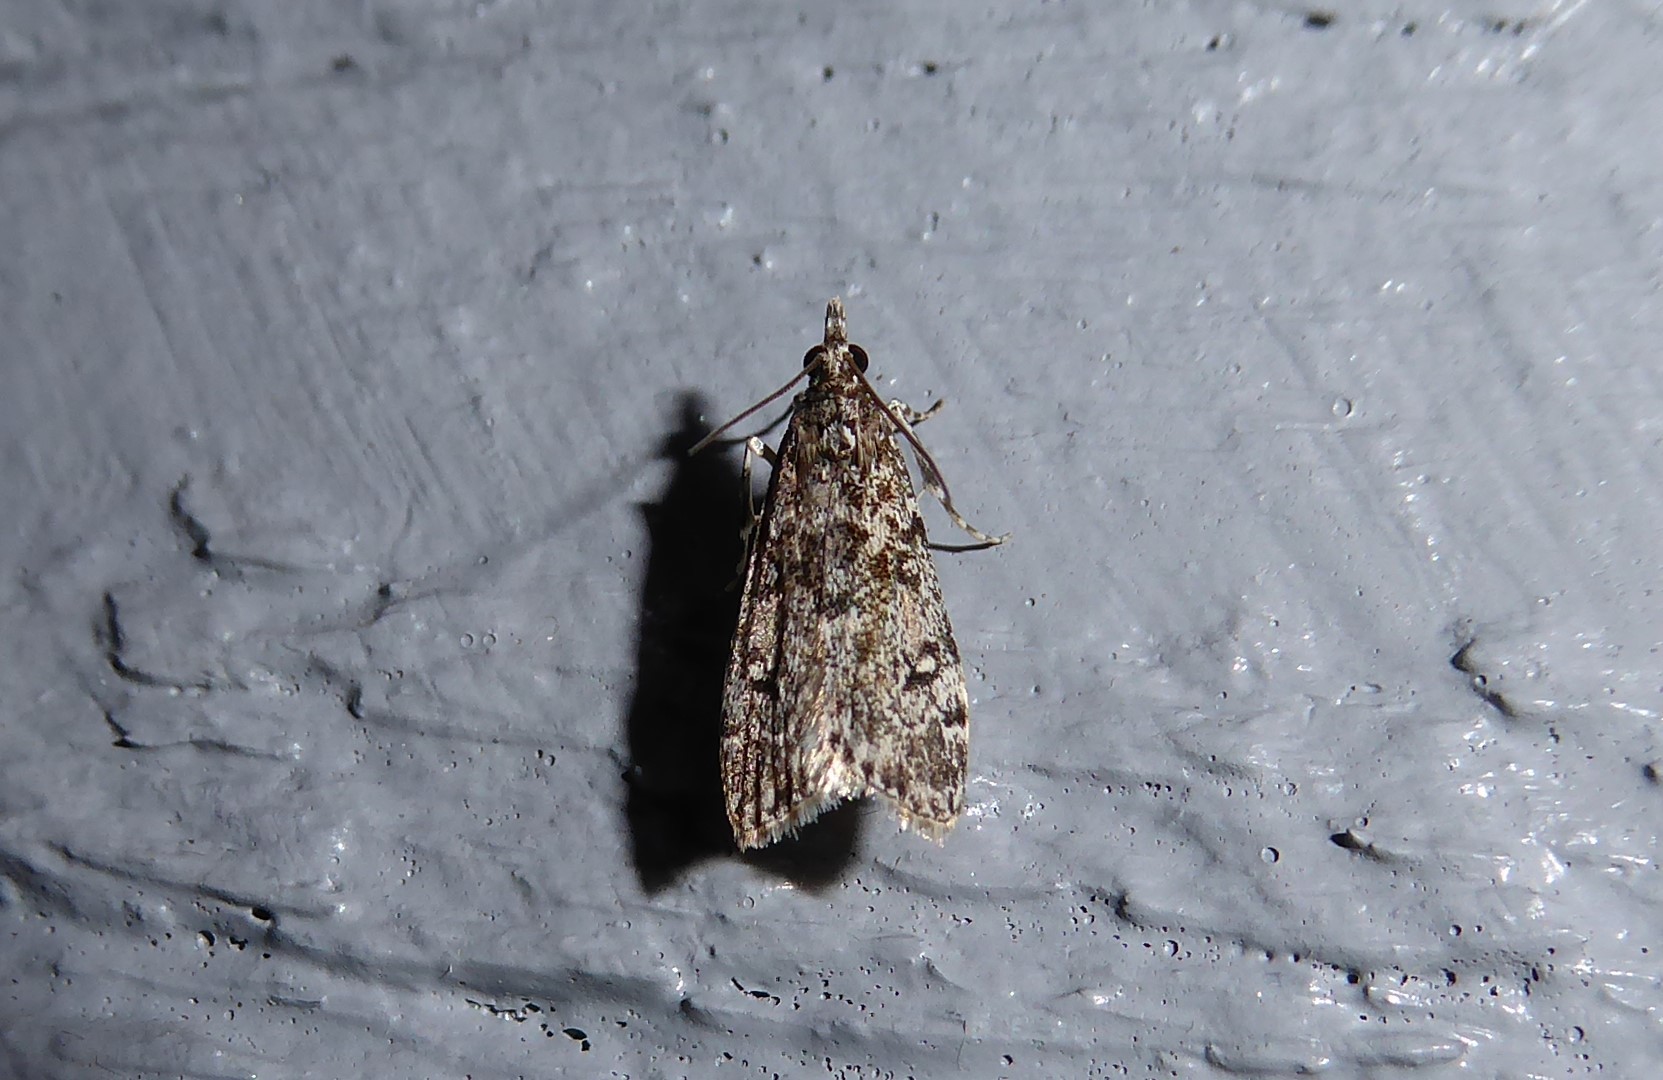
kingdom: Animalia
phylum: Arthropoda
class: Insecta
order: Lepidoptera
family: Crambidae
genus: Eudonia
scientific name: Eudonia philerga
